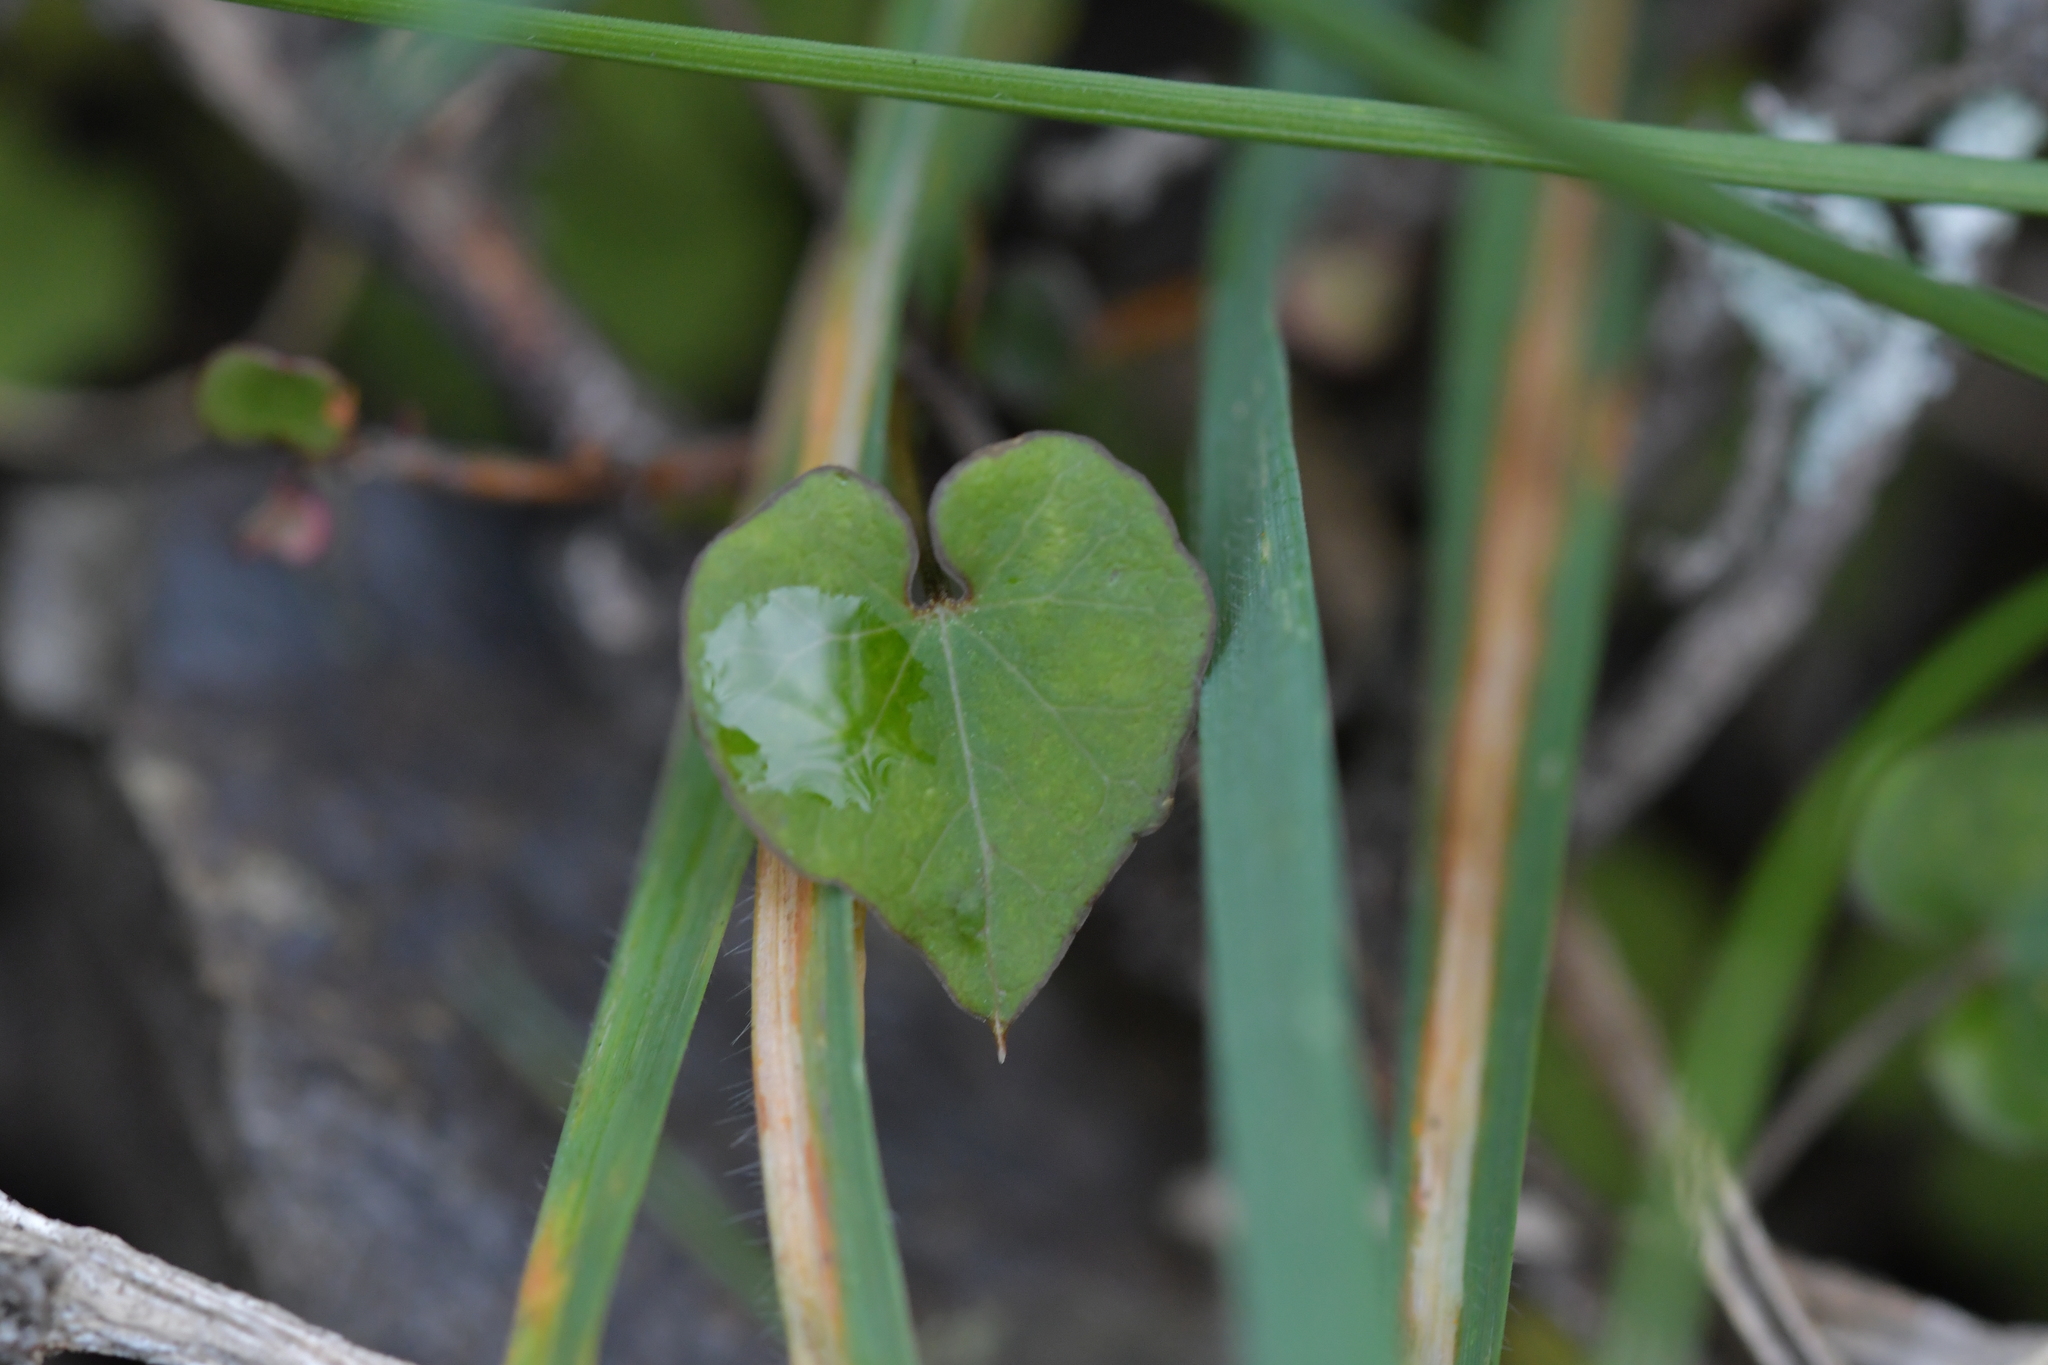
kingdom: Plantae
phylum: Tracheophyta
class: Magnoliopsida
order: Solanales
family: Convolvulaceae
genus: Calystegia
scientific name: Calystegia tuguriorum
